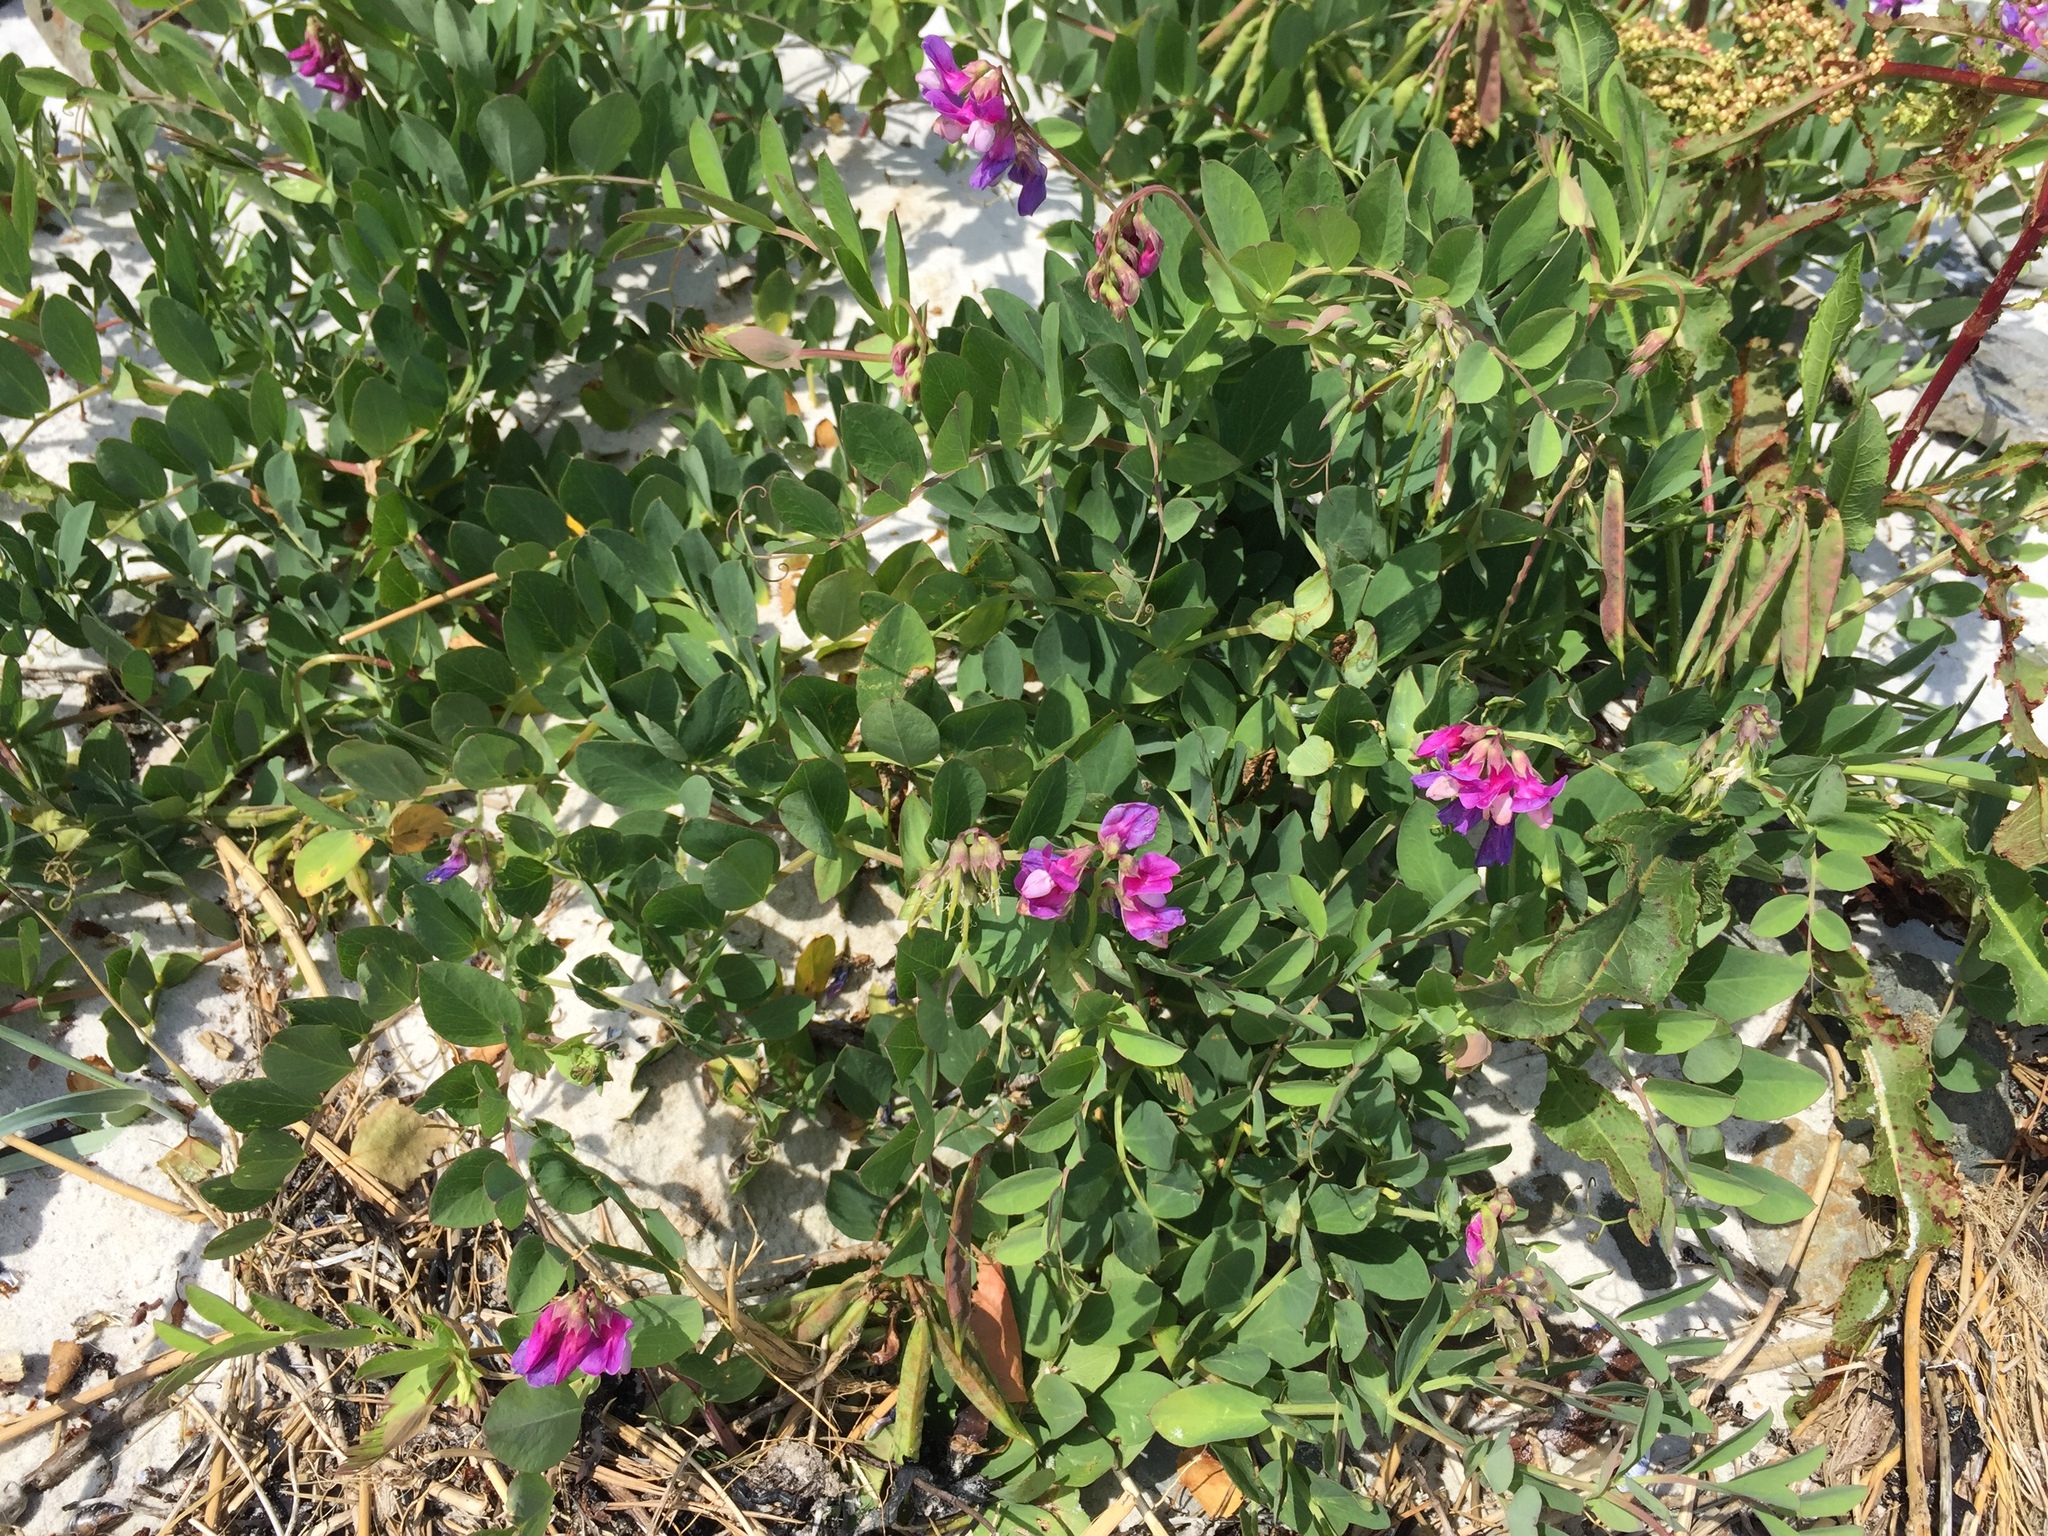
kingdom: Plantae
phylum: Tracheophyta
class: Magnoliopsida
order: Fabales
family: Fabaceae
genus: Lathyrus
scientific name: Lathyrus japonicus
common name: Sea pea
